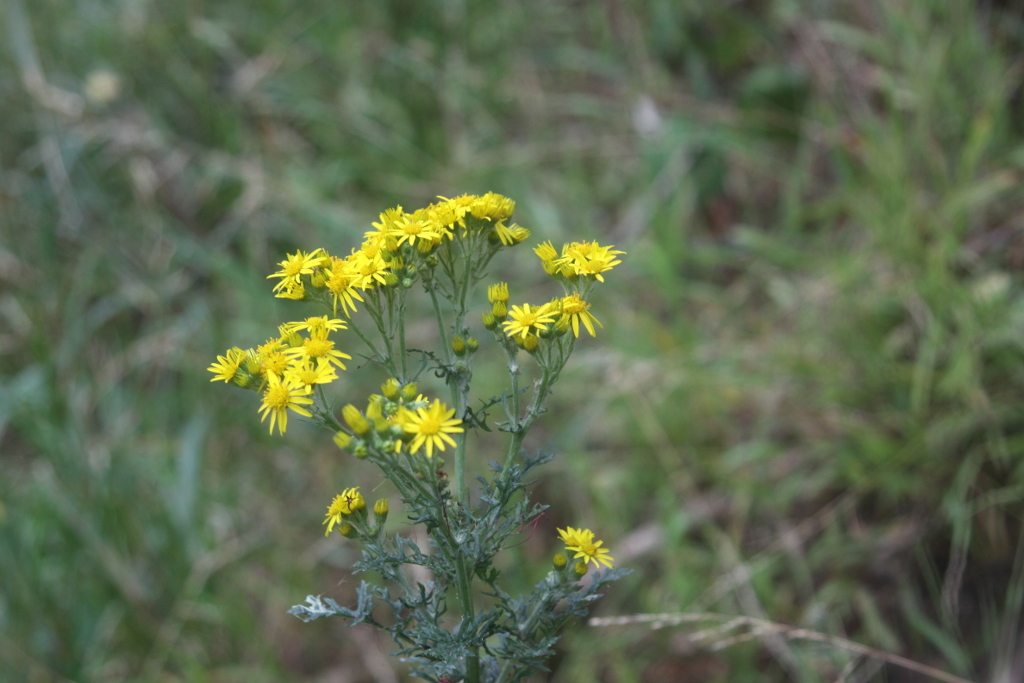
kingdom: Plantae
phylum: Tracheophyta
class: Magnoliopsida
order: Asterales
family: Asteraceae
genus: Jacobaea
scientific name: Jacobaea vulgaris
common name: Stinking willie
